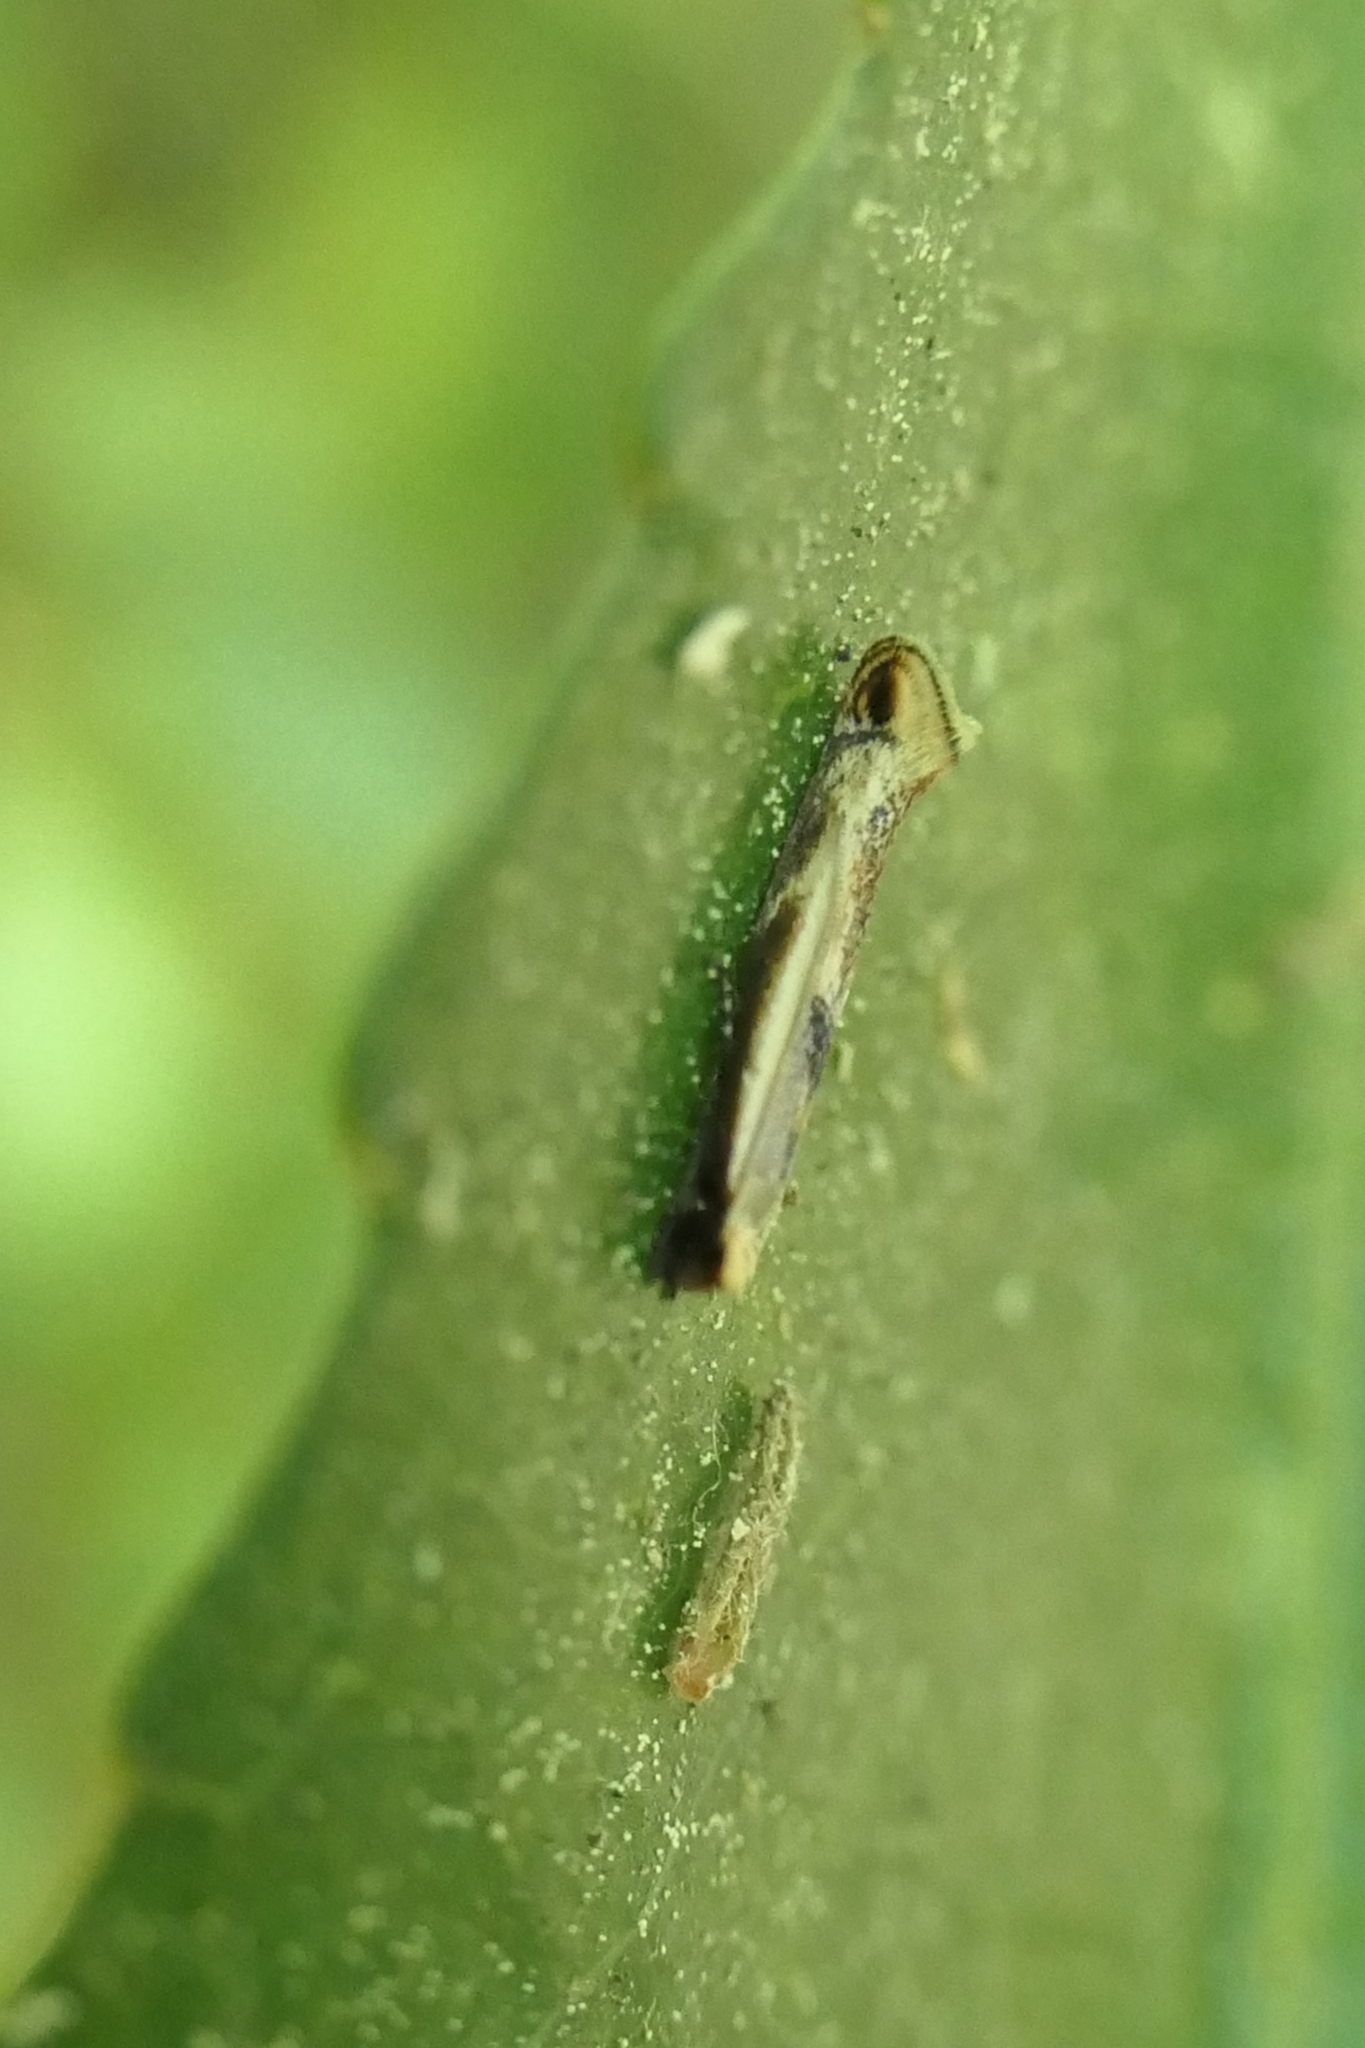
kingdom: Animalia
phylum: Arthropoda
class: Insecta
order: Lepidoptera
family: Tineidae
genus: Erechthias
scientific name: Erechthias charadrota
